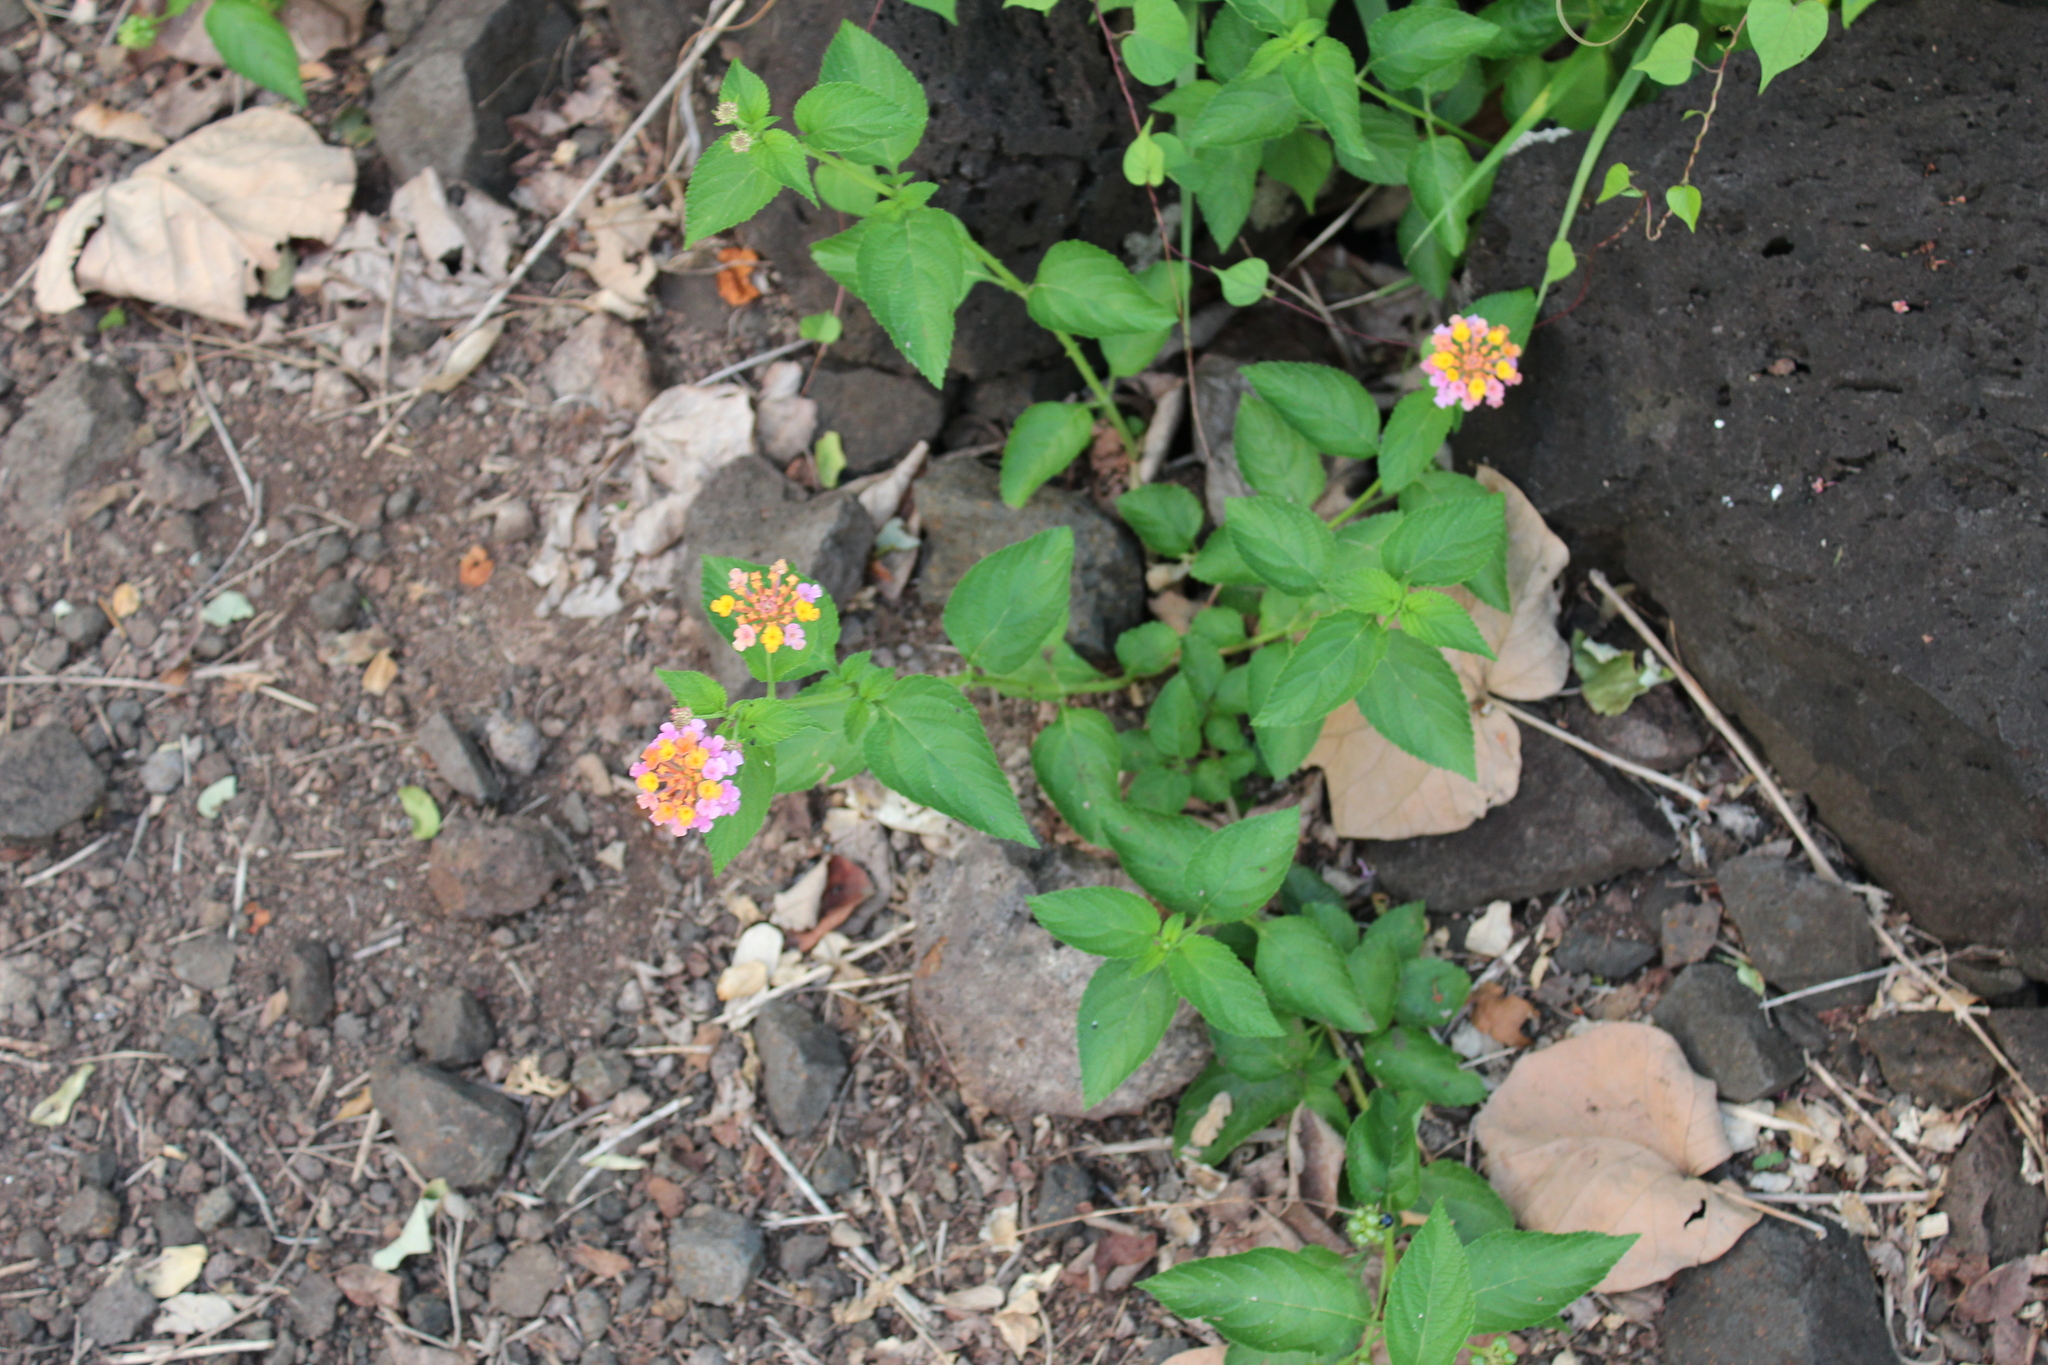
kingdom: Plantae
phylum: Tracheophyta
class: Magnoliopsida
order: Lamiales
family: Verbenaceae
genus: Lantana
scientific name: Lantana camara
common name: Lantana
